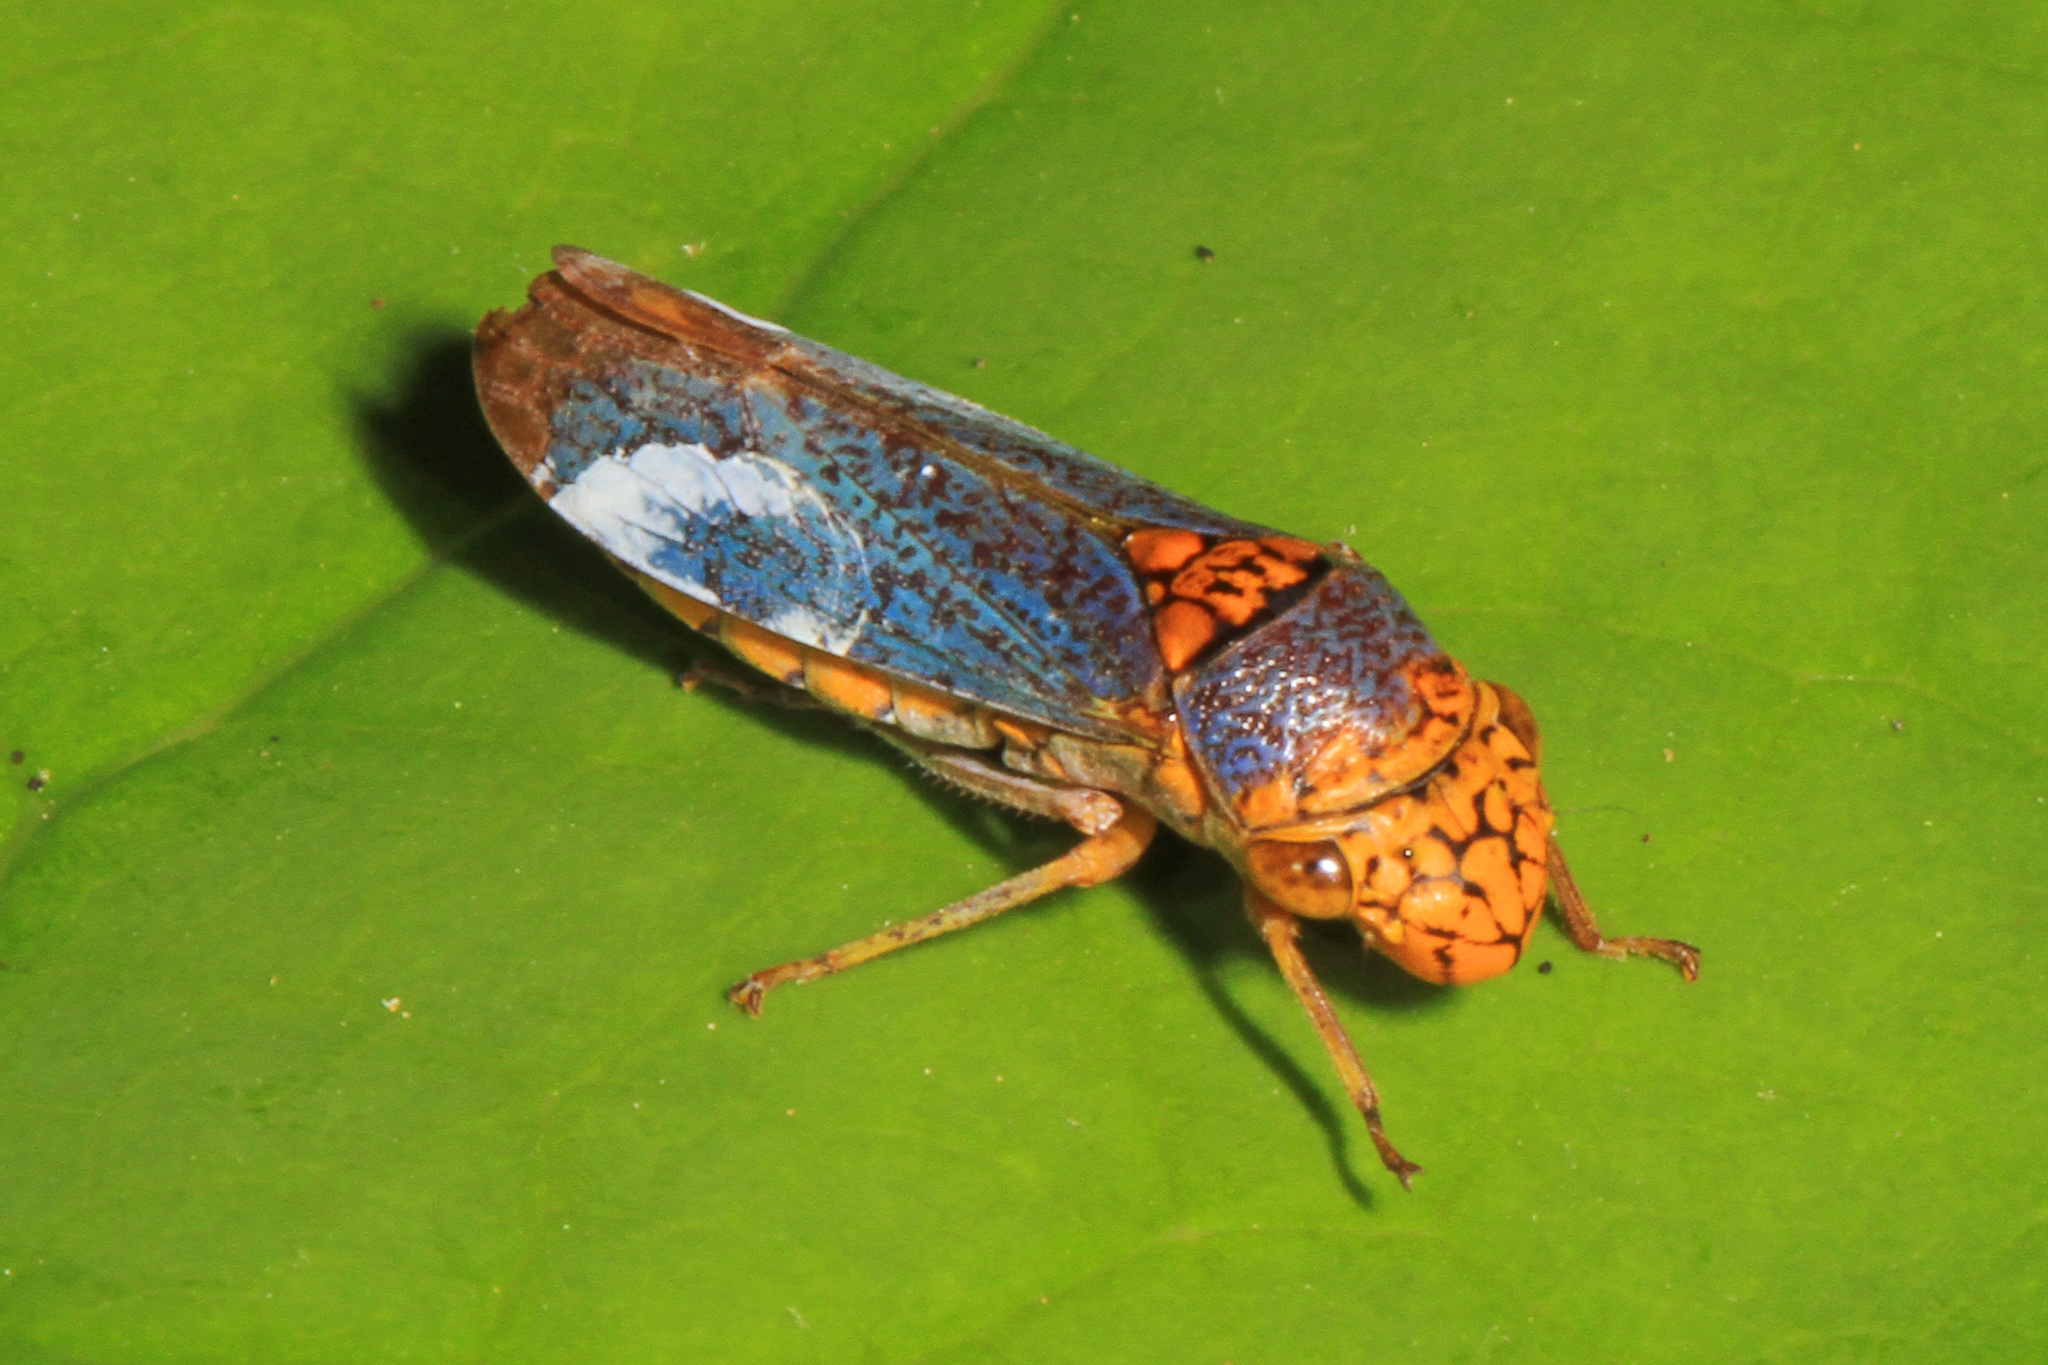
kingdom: Animalia
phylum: Arthropoda
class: Insecta
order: Hemiptera
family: Cicadellidae
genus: Oncometopia
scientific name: Oncometopia orbona
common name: Broad-headed sharpshooter
